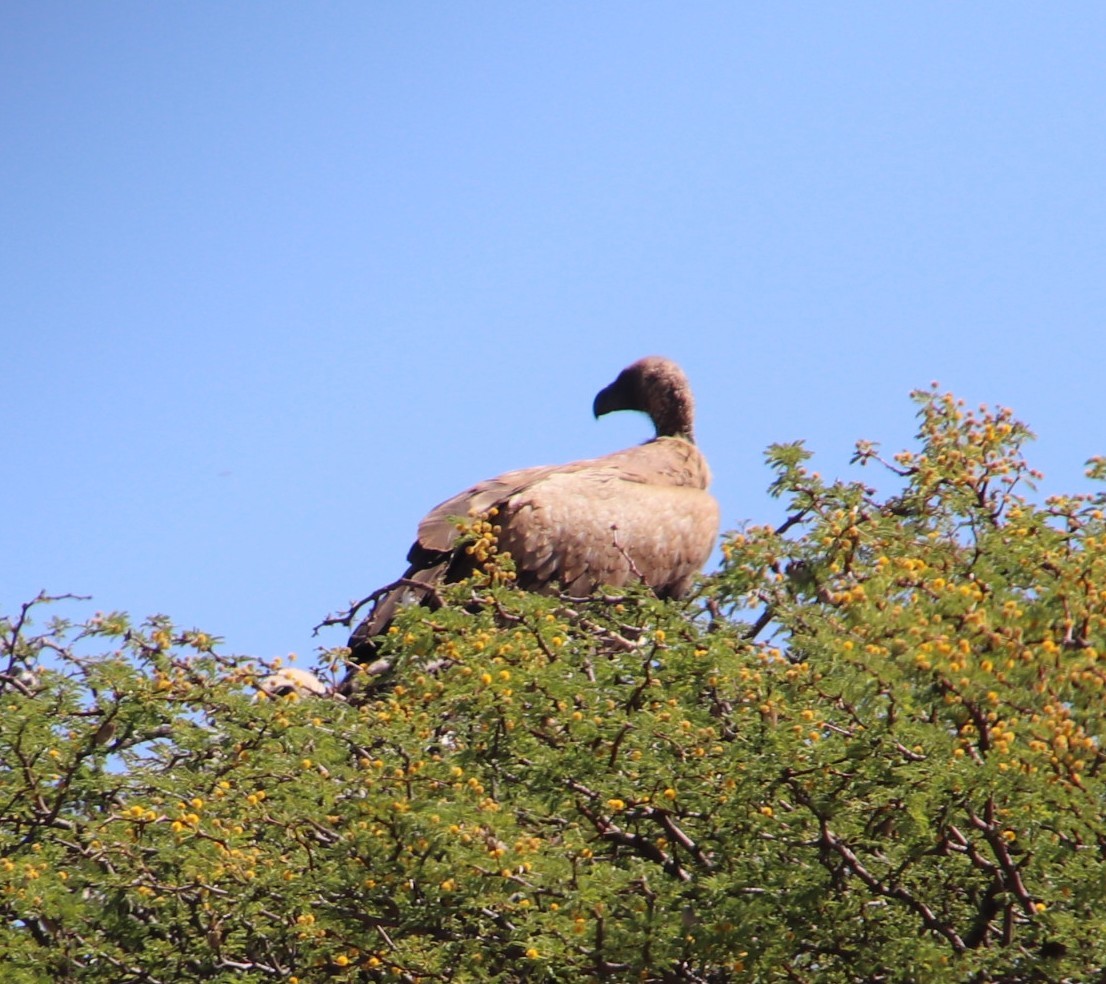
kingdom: Animalia
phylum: Chordata
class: Aves
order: Accipitriformes
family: Accipitridae
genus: Gyps
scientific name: Gyps africanus
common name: White-backed vulture
